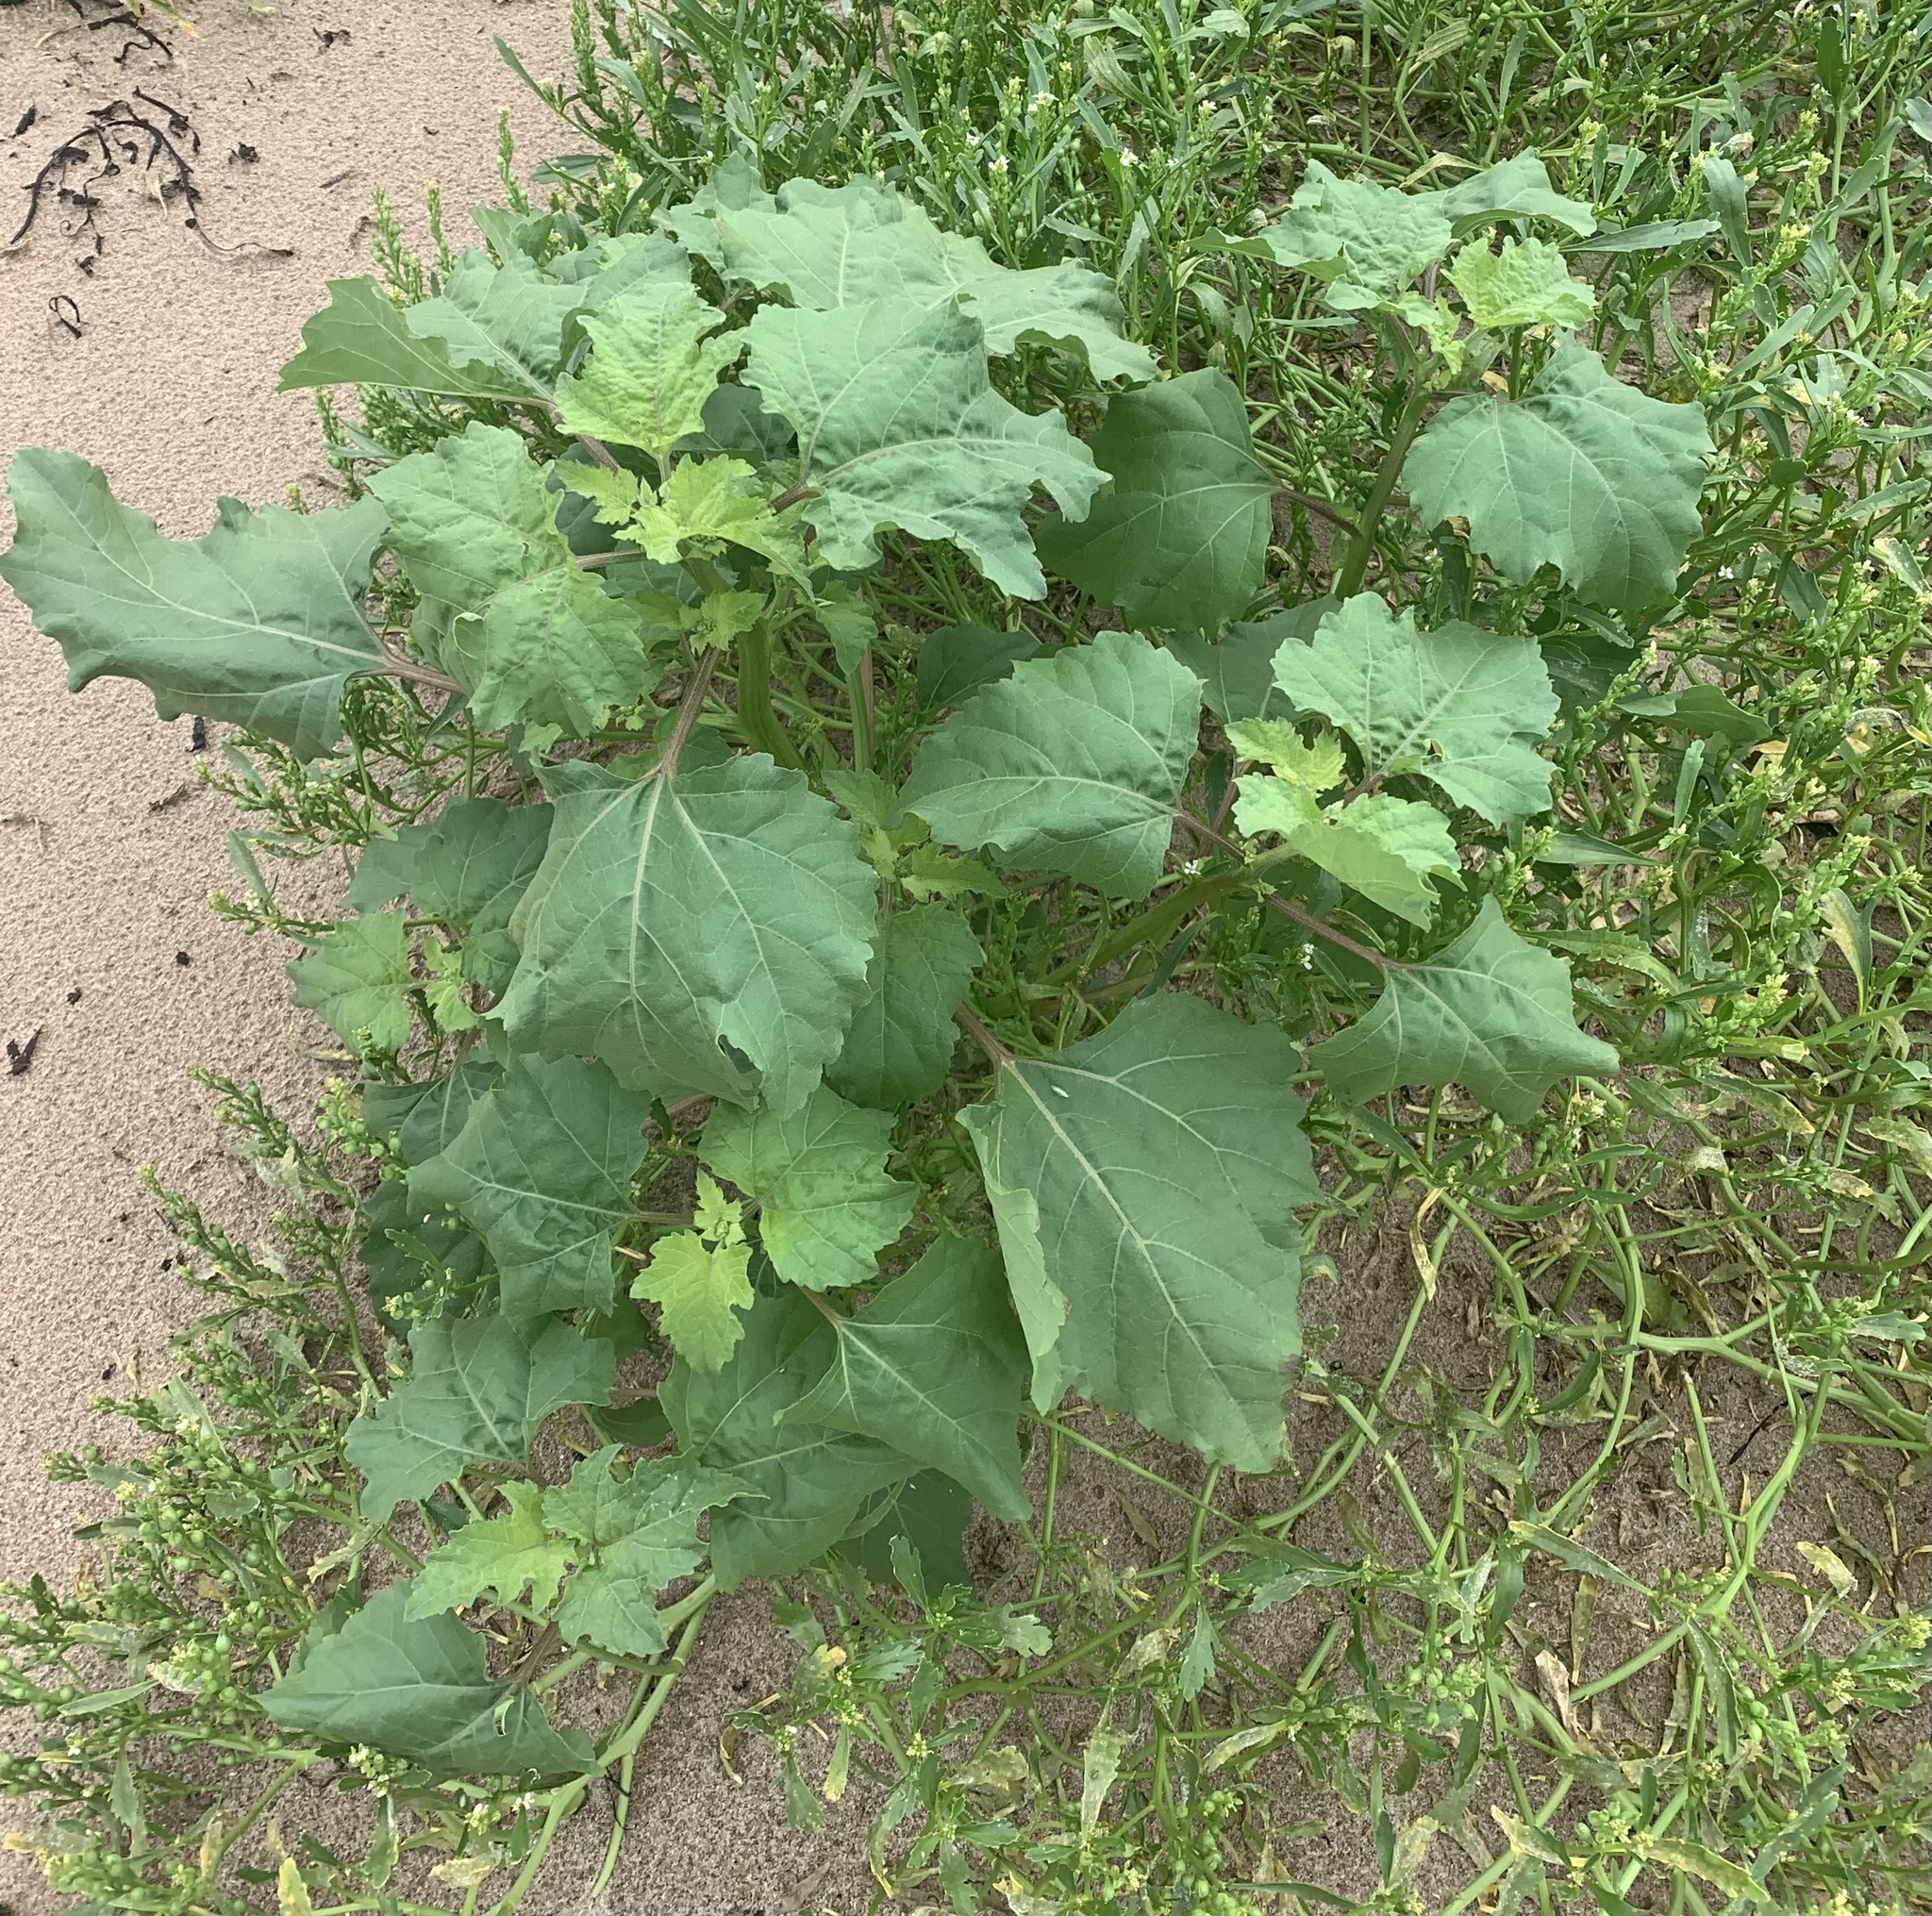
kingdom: Plantae
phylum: Tracheophyta
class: Magnoliopsida
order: Asterales
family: Asteraceae
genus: Xanthium
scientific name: Xanthium strumarium
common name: Rough cocklebur
